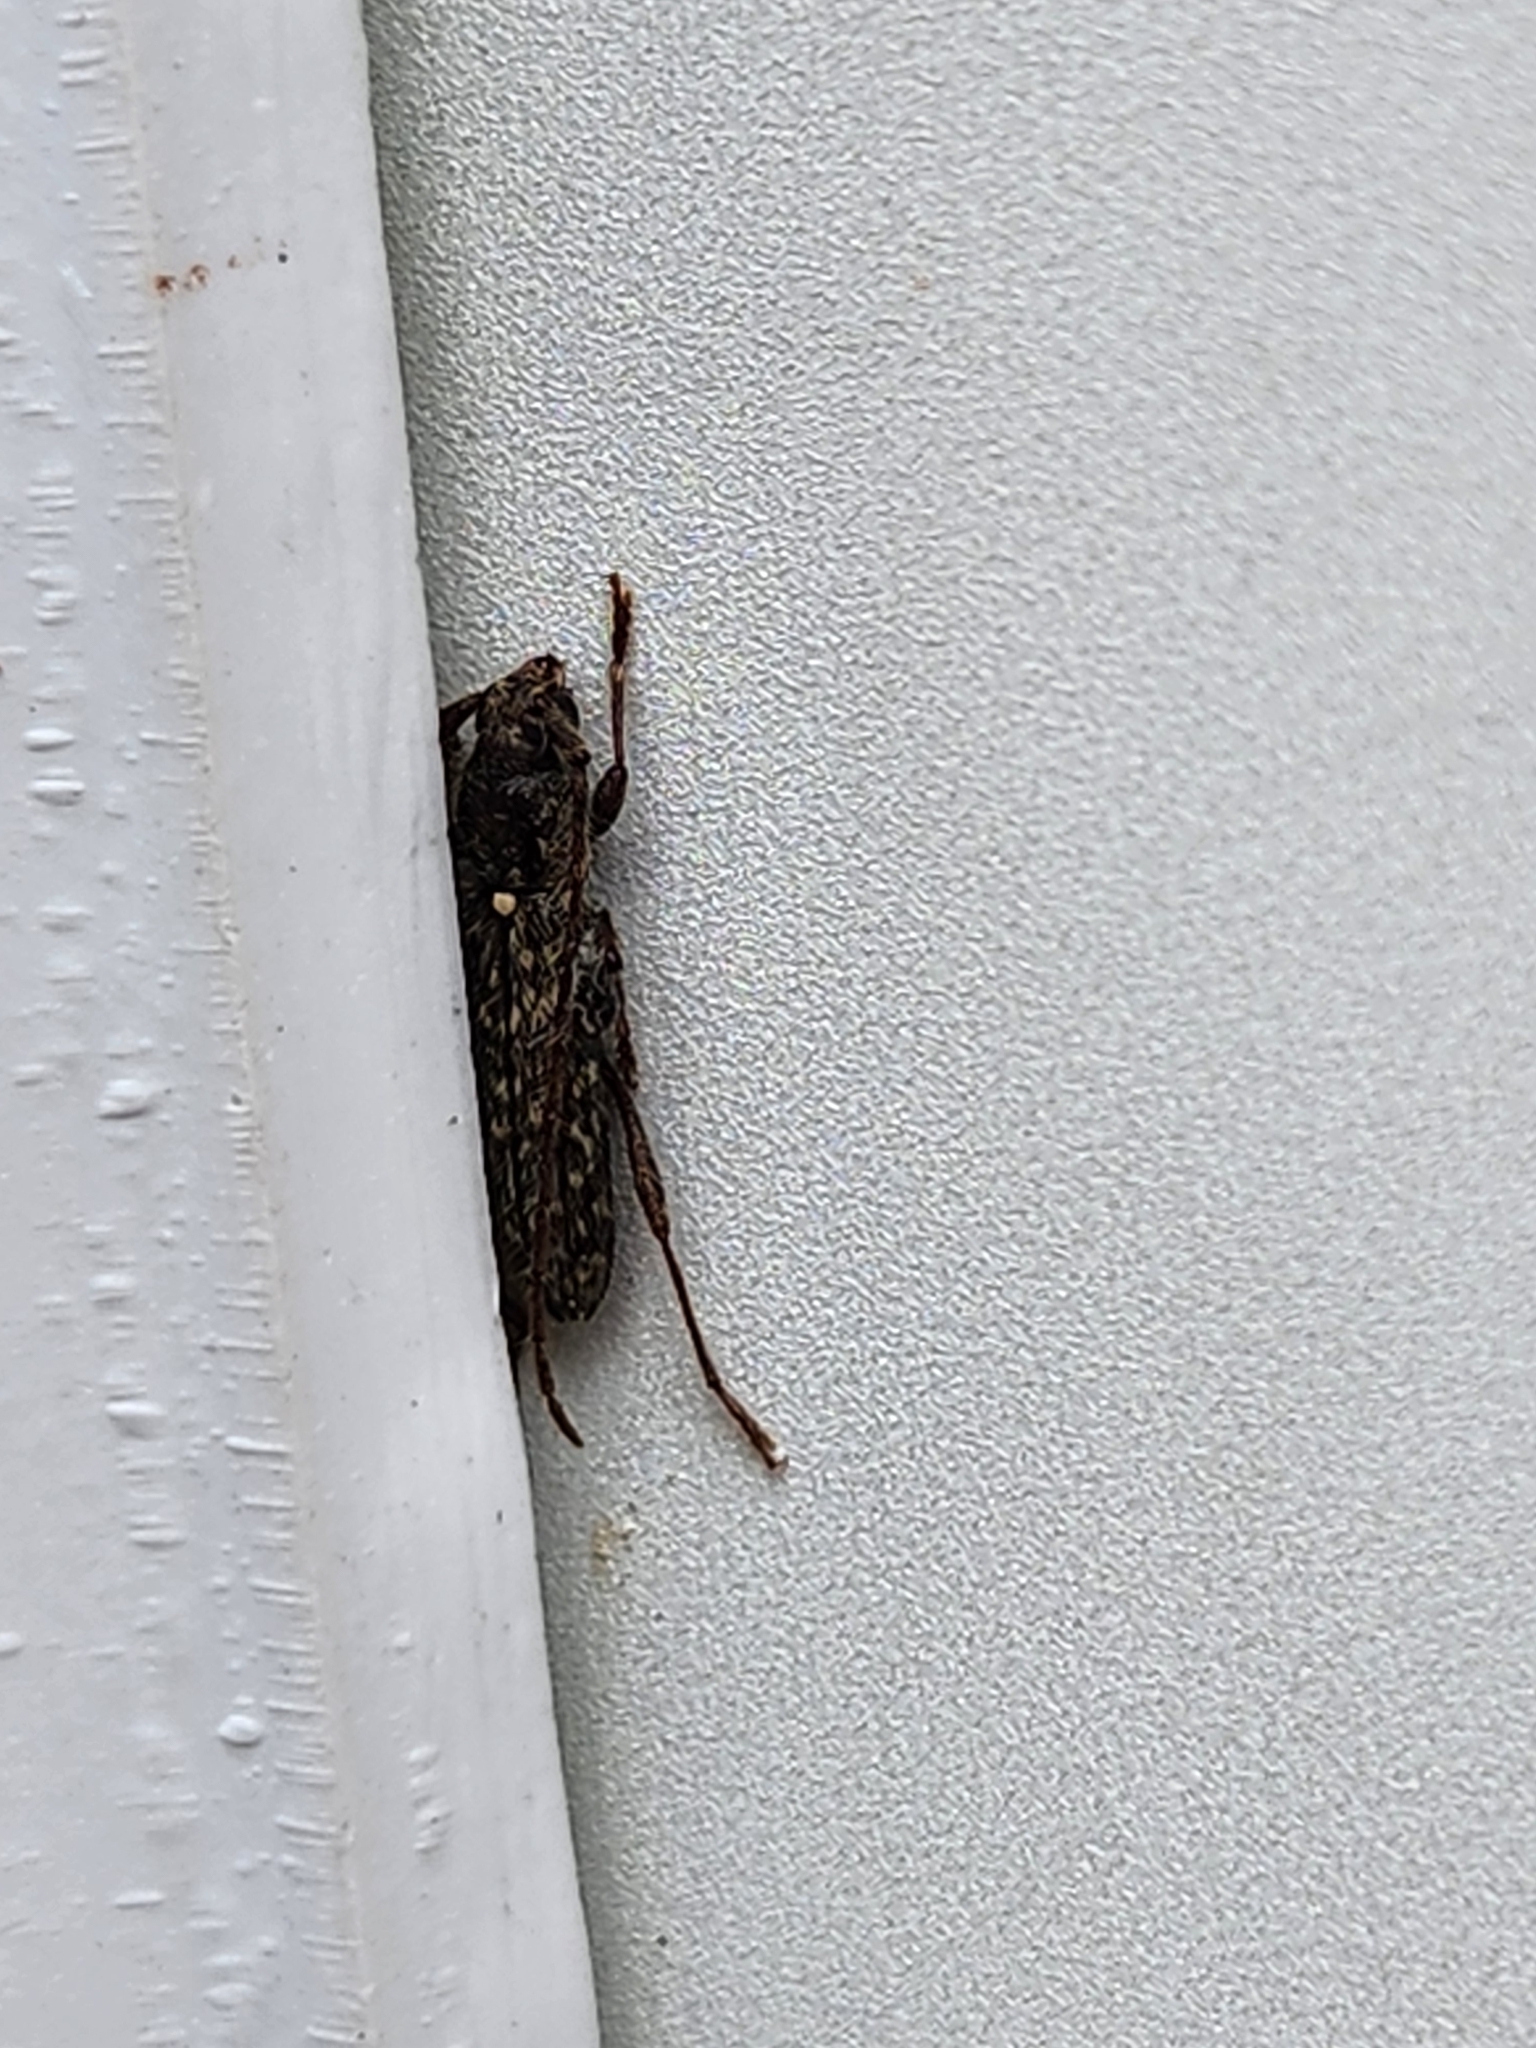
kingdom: Animalia
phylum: Arthropoda
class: Insecta
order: Coleoptera
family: Cerambycidae
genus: Anelaphus
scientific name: Anelaphus pumilus
